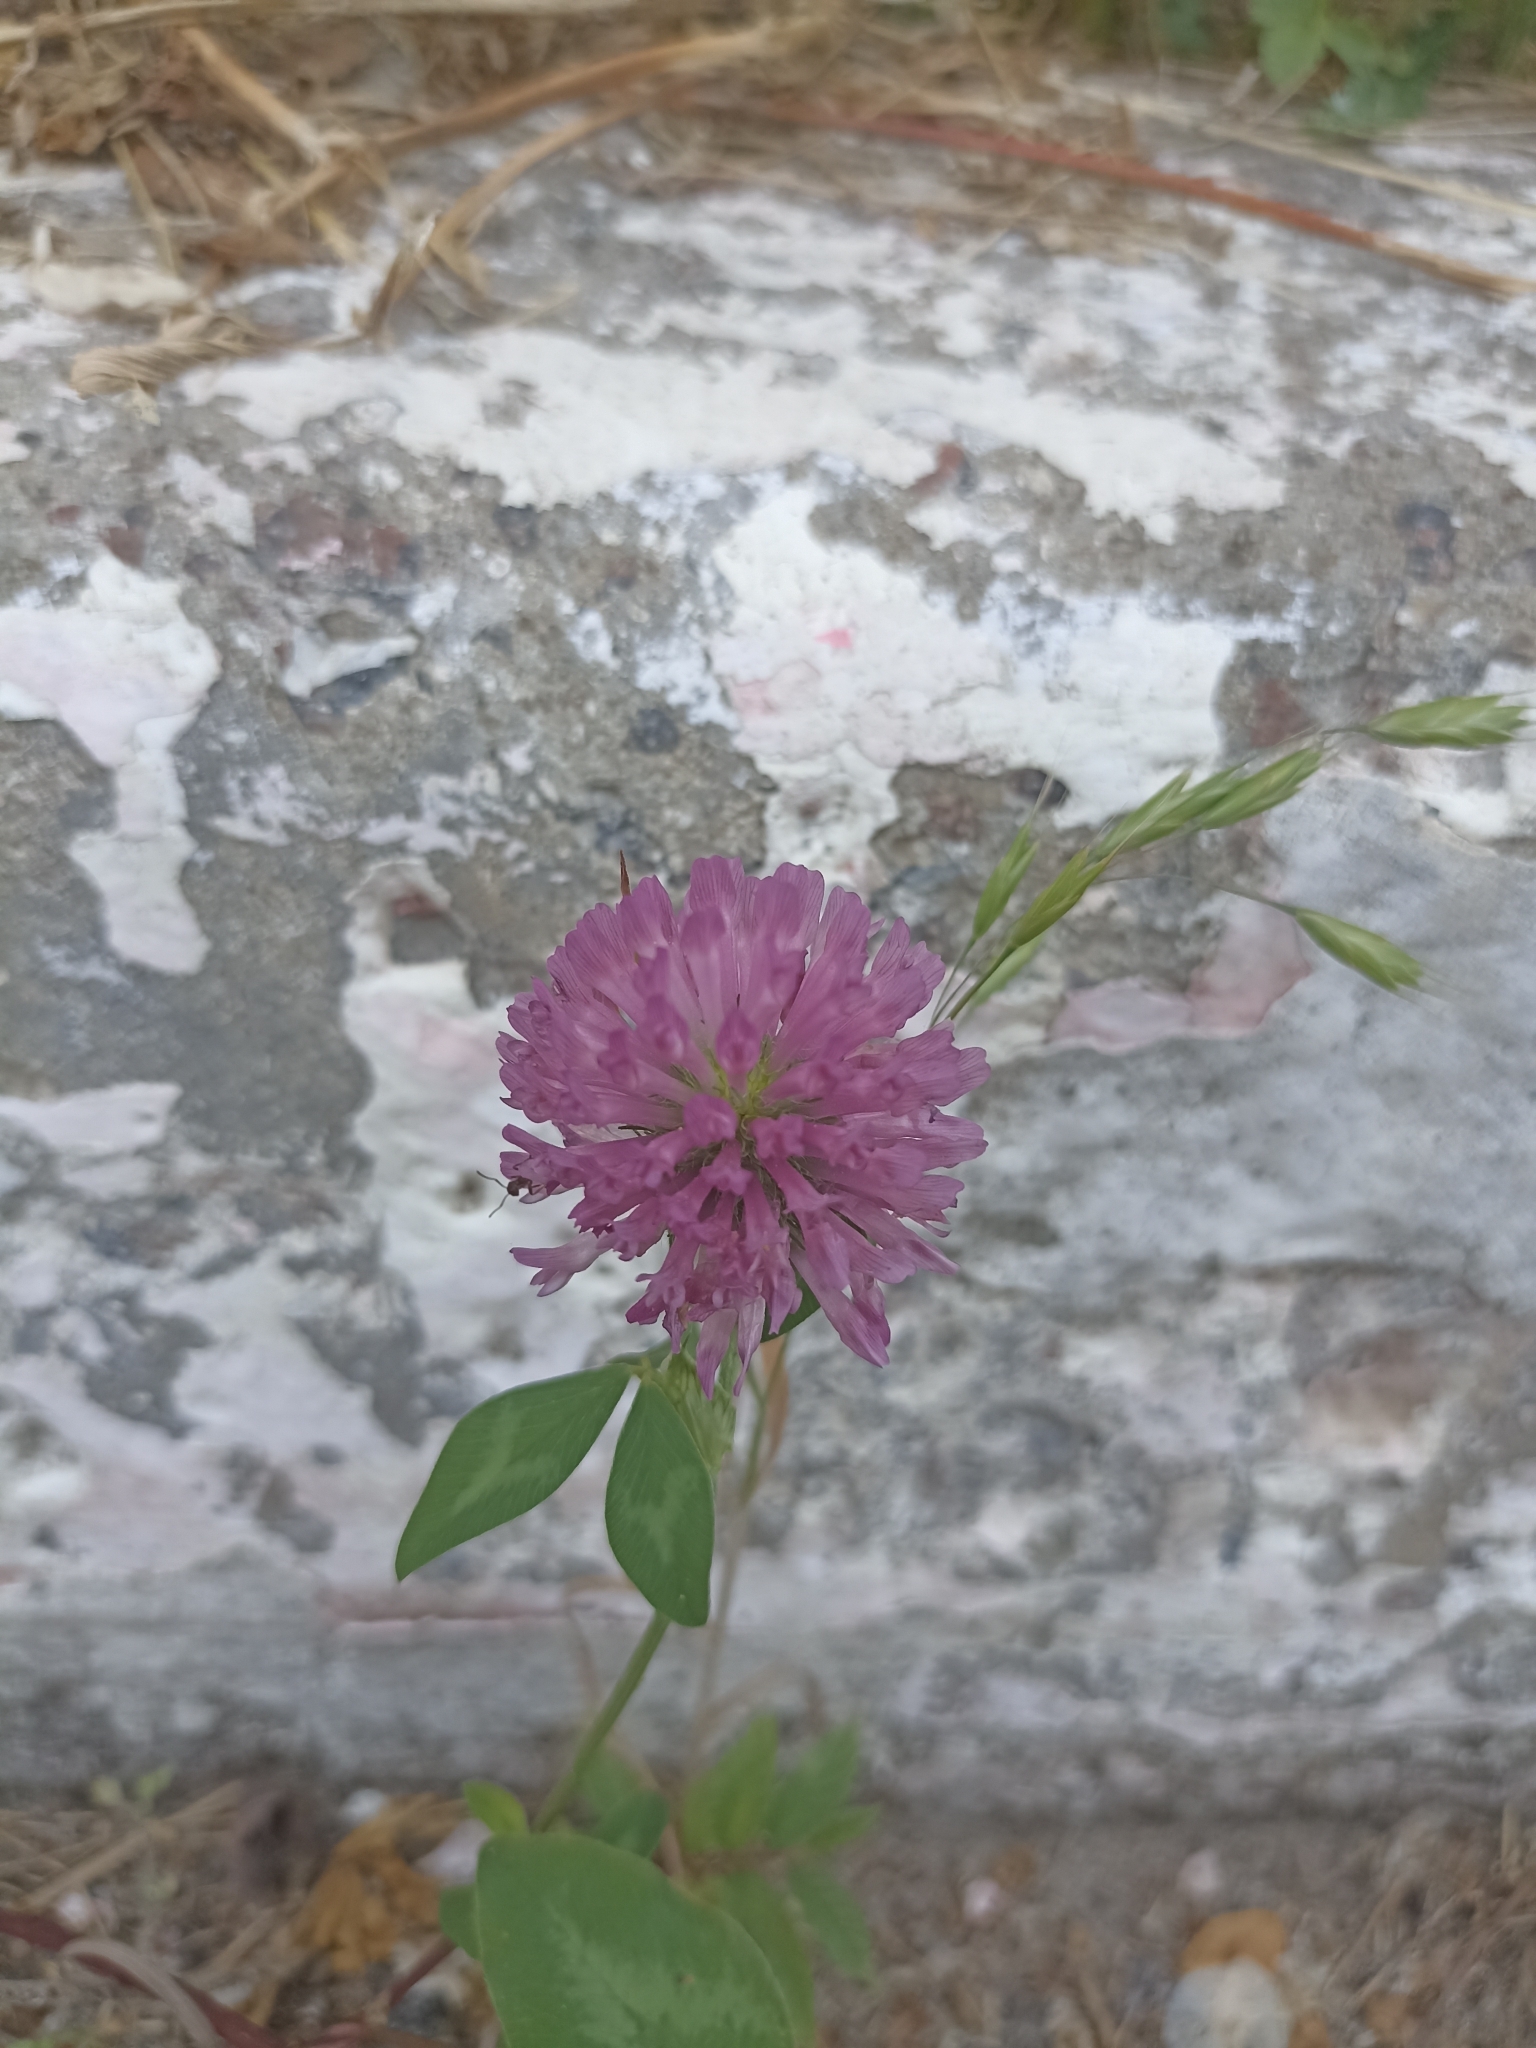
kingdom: Plantae
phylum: Tracheophyta
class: Magnoliopsida
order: Fabales
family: Fabaceae
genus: Trifolium
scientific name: Trifolium pratense
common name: Red clover
